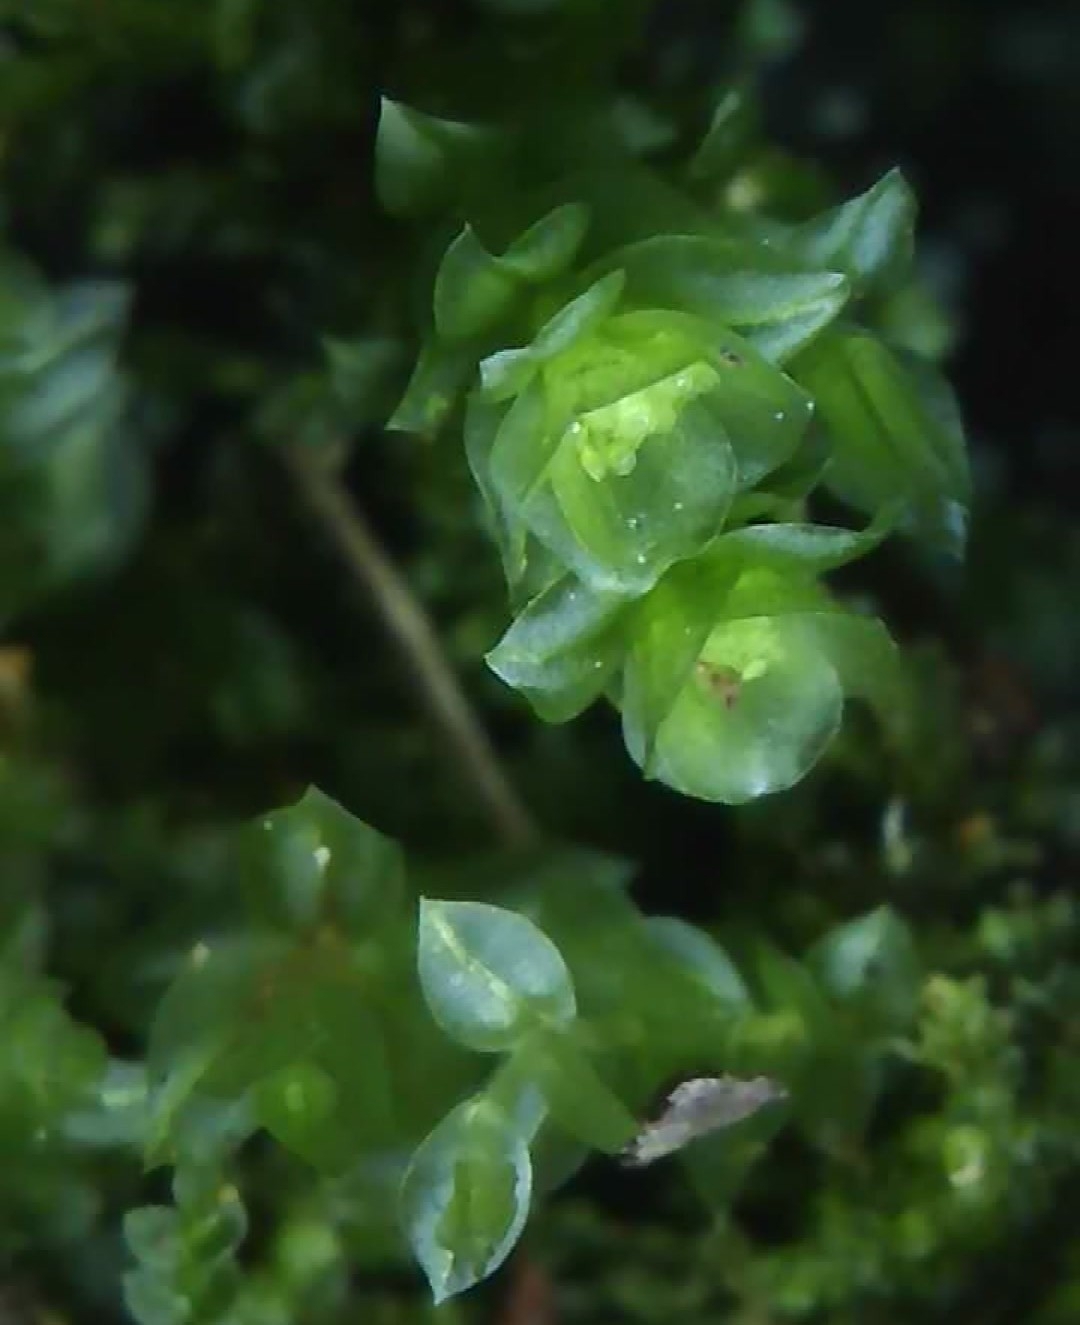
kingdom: Plantae
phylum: Bryophyta
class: Polytrichopsida
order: Tetraphidales
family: Tetraphidaceae
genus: Tetraphis
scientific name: Tetraphis pellucida
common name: Common four-toothed moss
